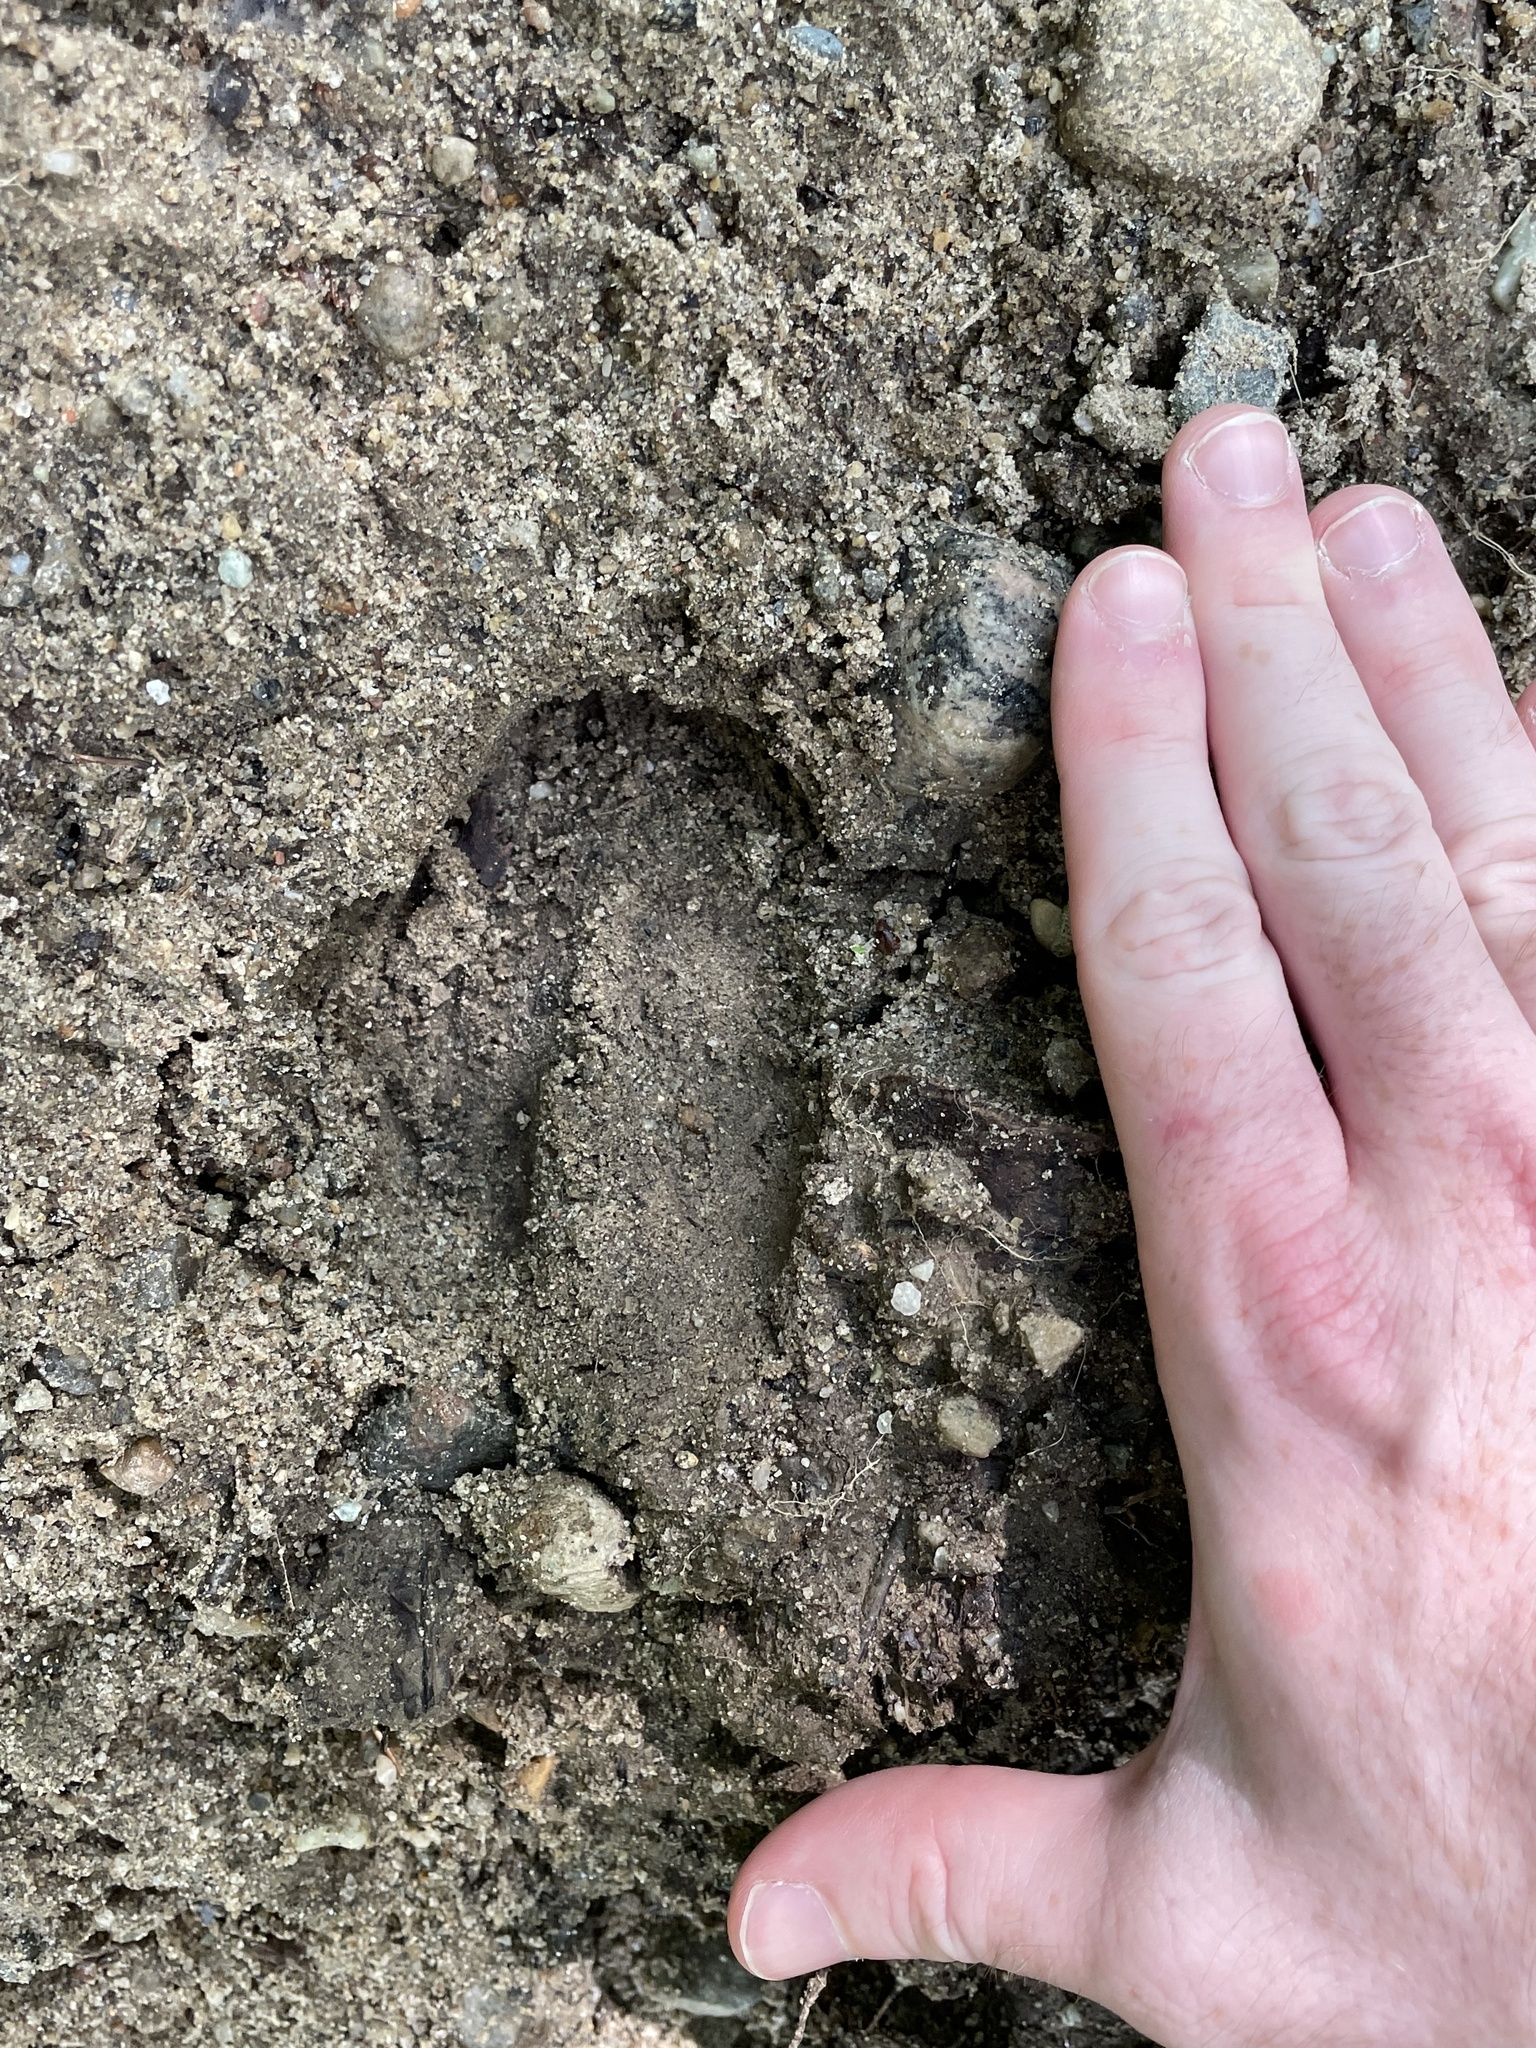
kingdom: Animalia
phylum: Chordata
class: Mammalia
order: Artiodactyla
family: Cervidae
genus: Odocoileus
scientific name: Odocoileus virginianus
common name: White-tailed deer
